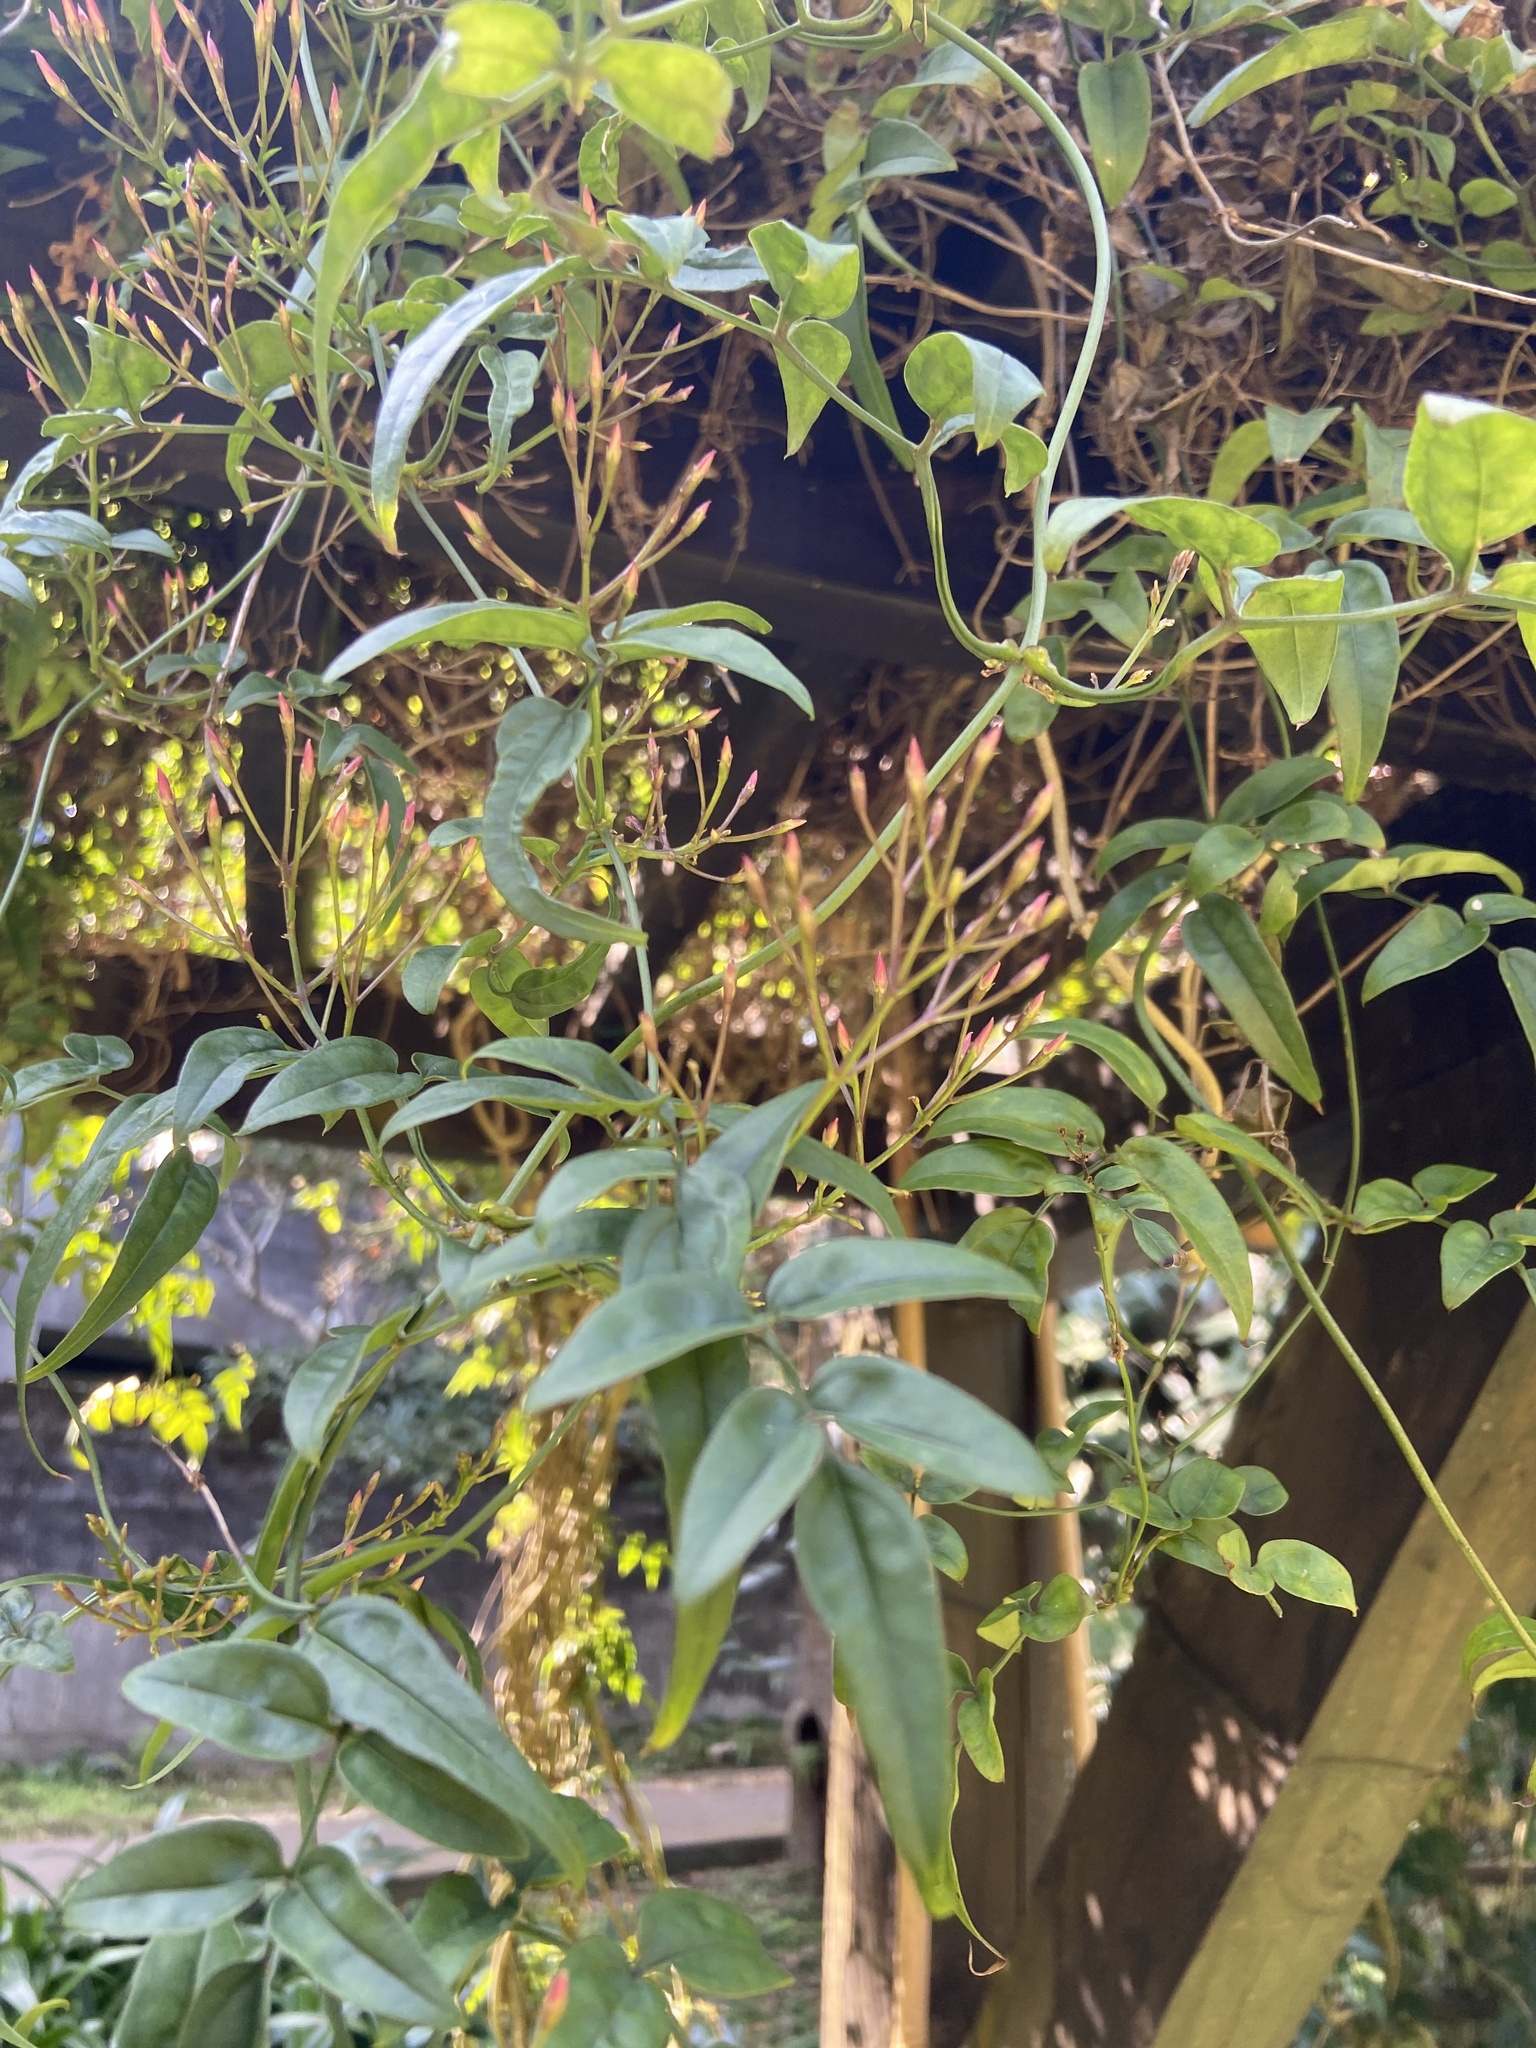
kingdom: Plantae
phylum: Tracheophyta
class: Magnoliopsida
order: Fabales
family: Fabaceae
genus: Wisteriopsis
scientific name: Wisteriopsis reticulata
